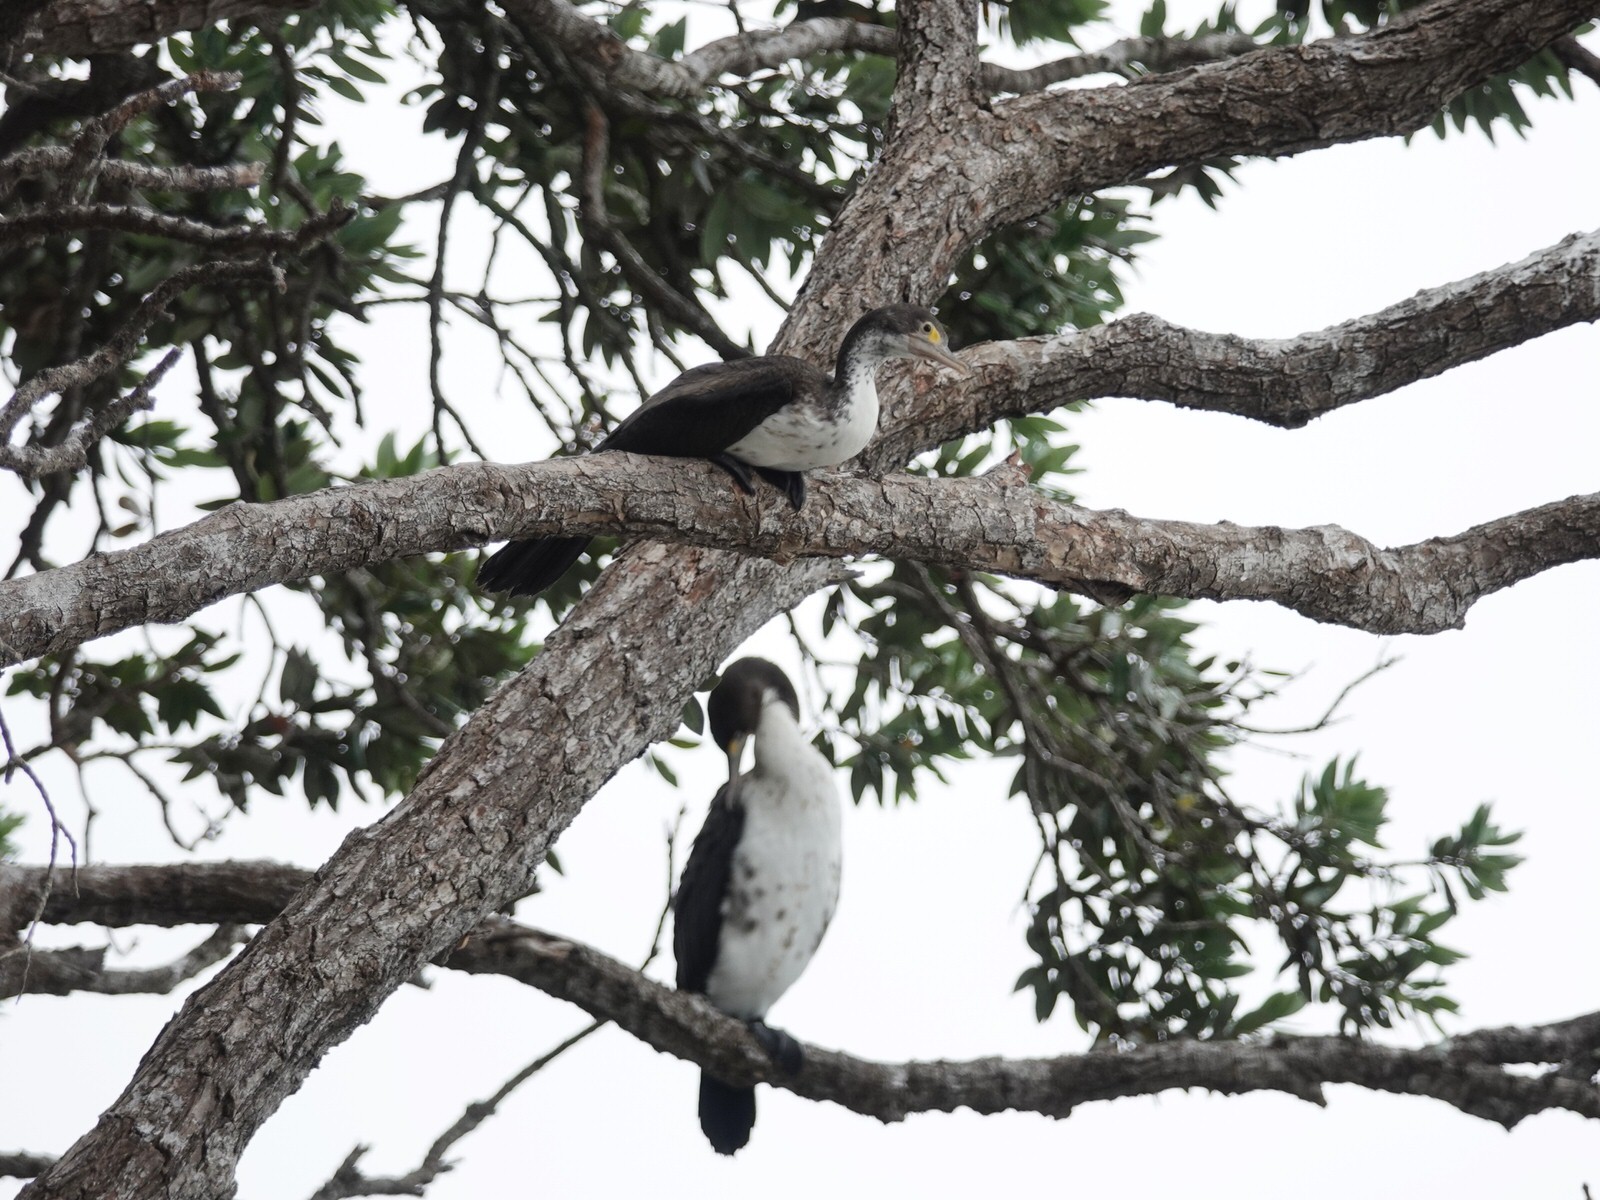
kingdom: Animalia
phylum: Chordata
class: Aves
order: Suliformes
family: Phalacrocoracidae
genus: Phalacrocorax
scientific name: Phalacrocorax varius
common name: Pied cormorant
